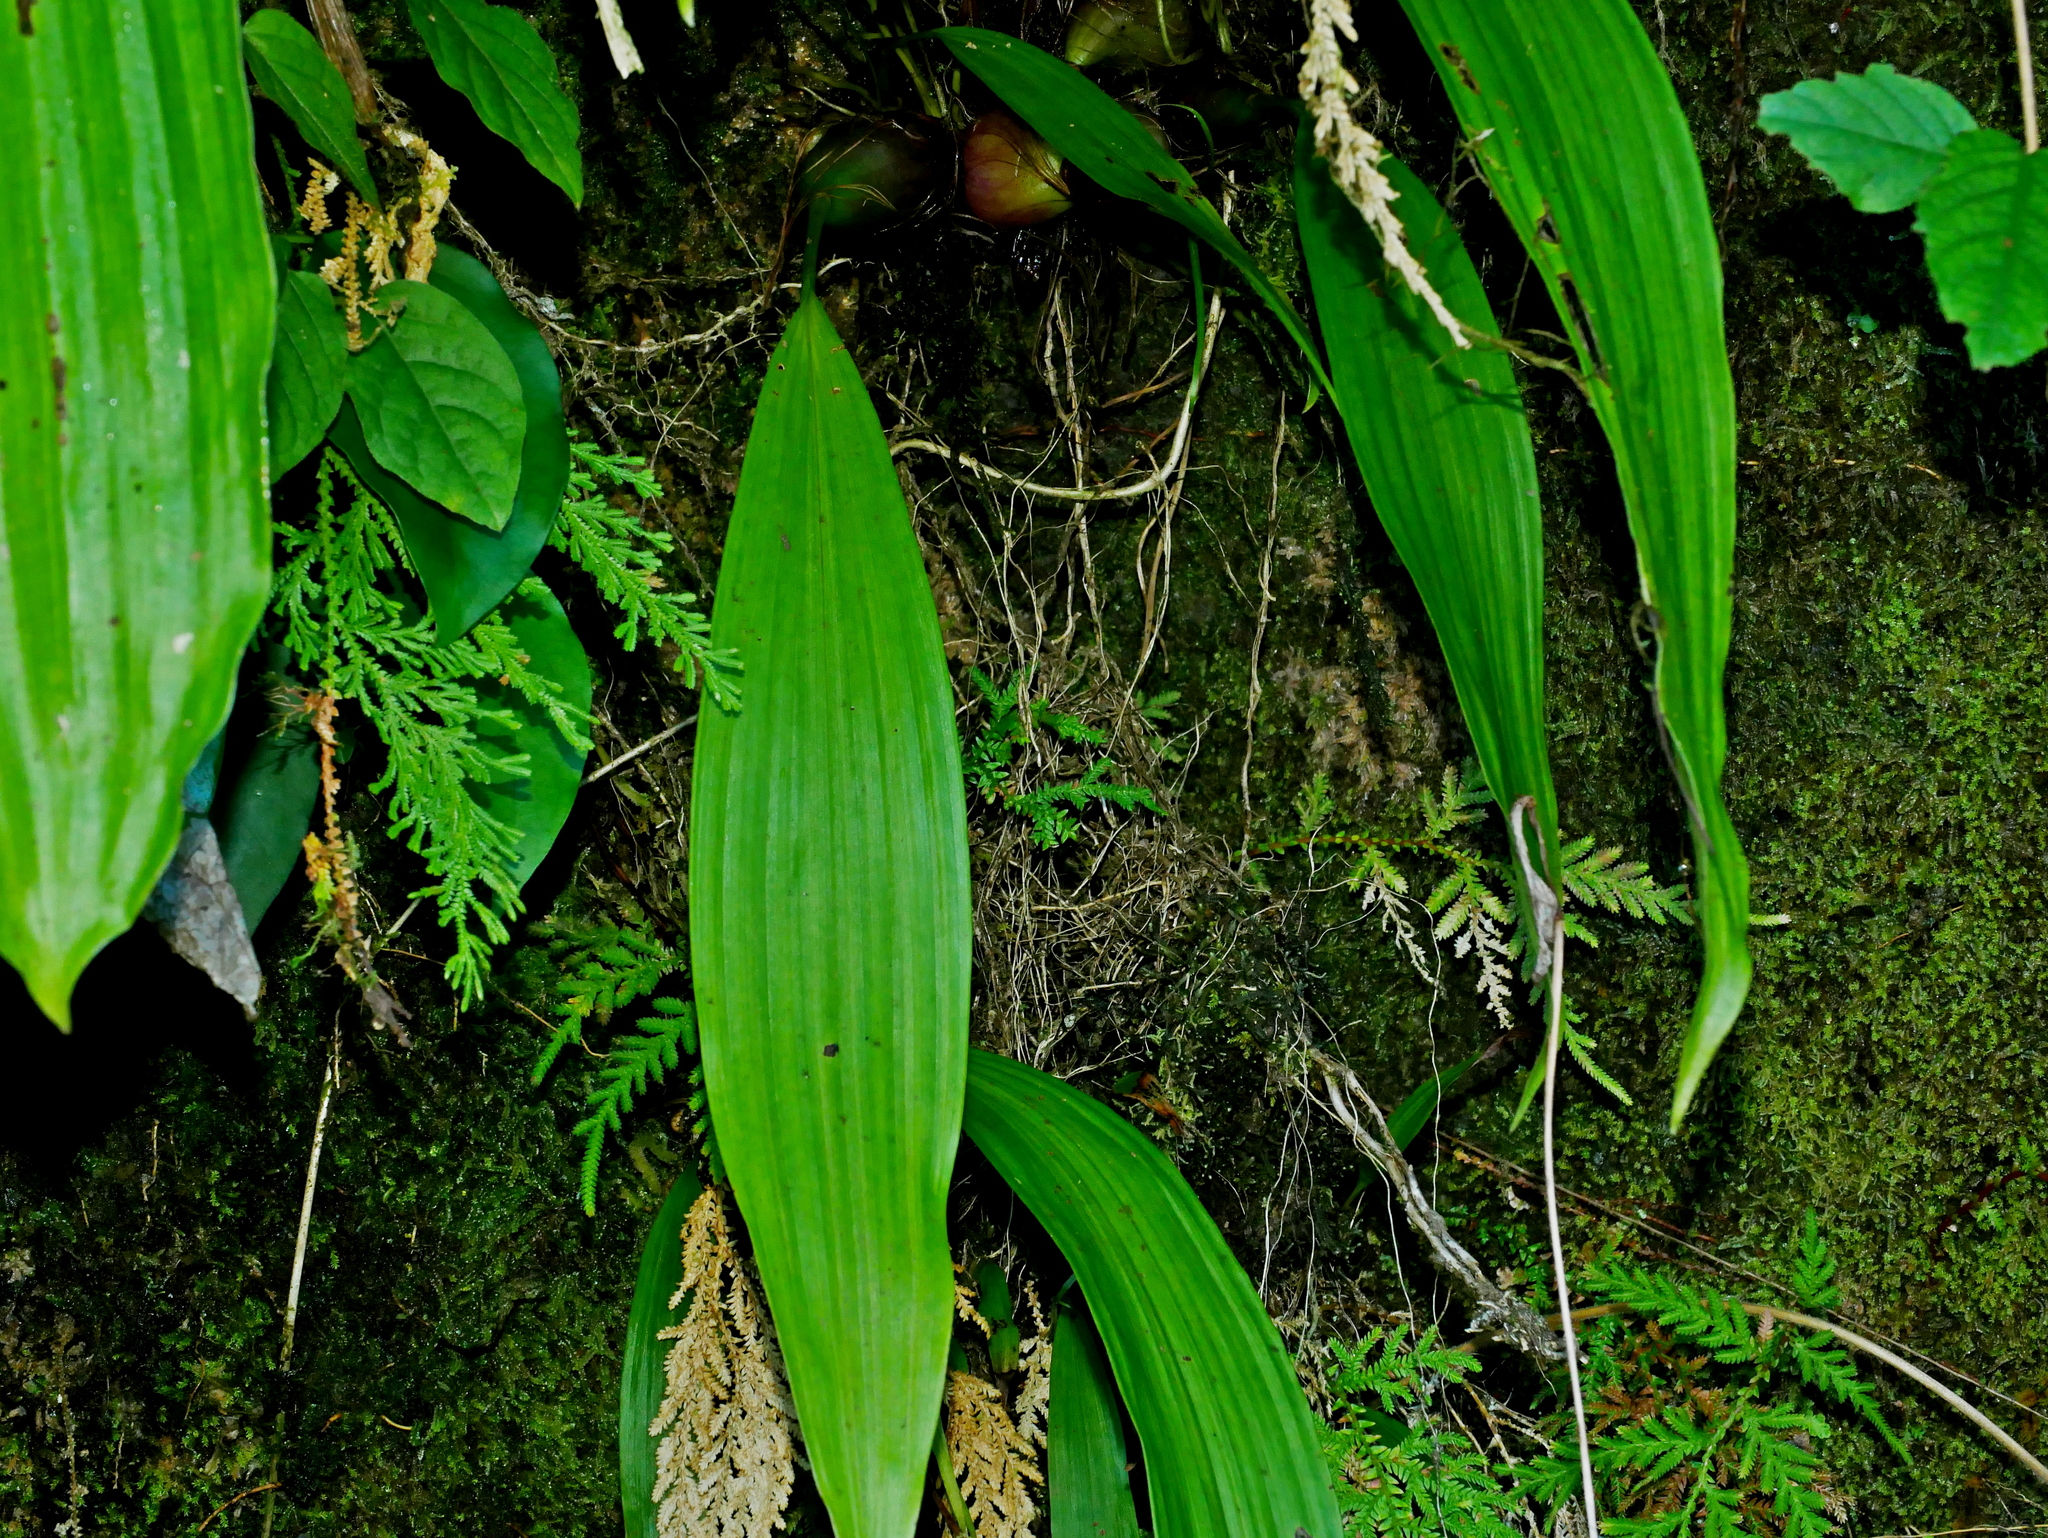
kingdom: Plantae
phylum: Tracheophyta
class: Liliopsida
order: Asparagales
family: Orchidaceae
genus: Pleione
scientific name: Pleione formosana
